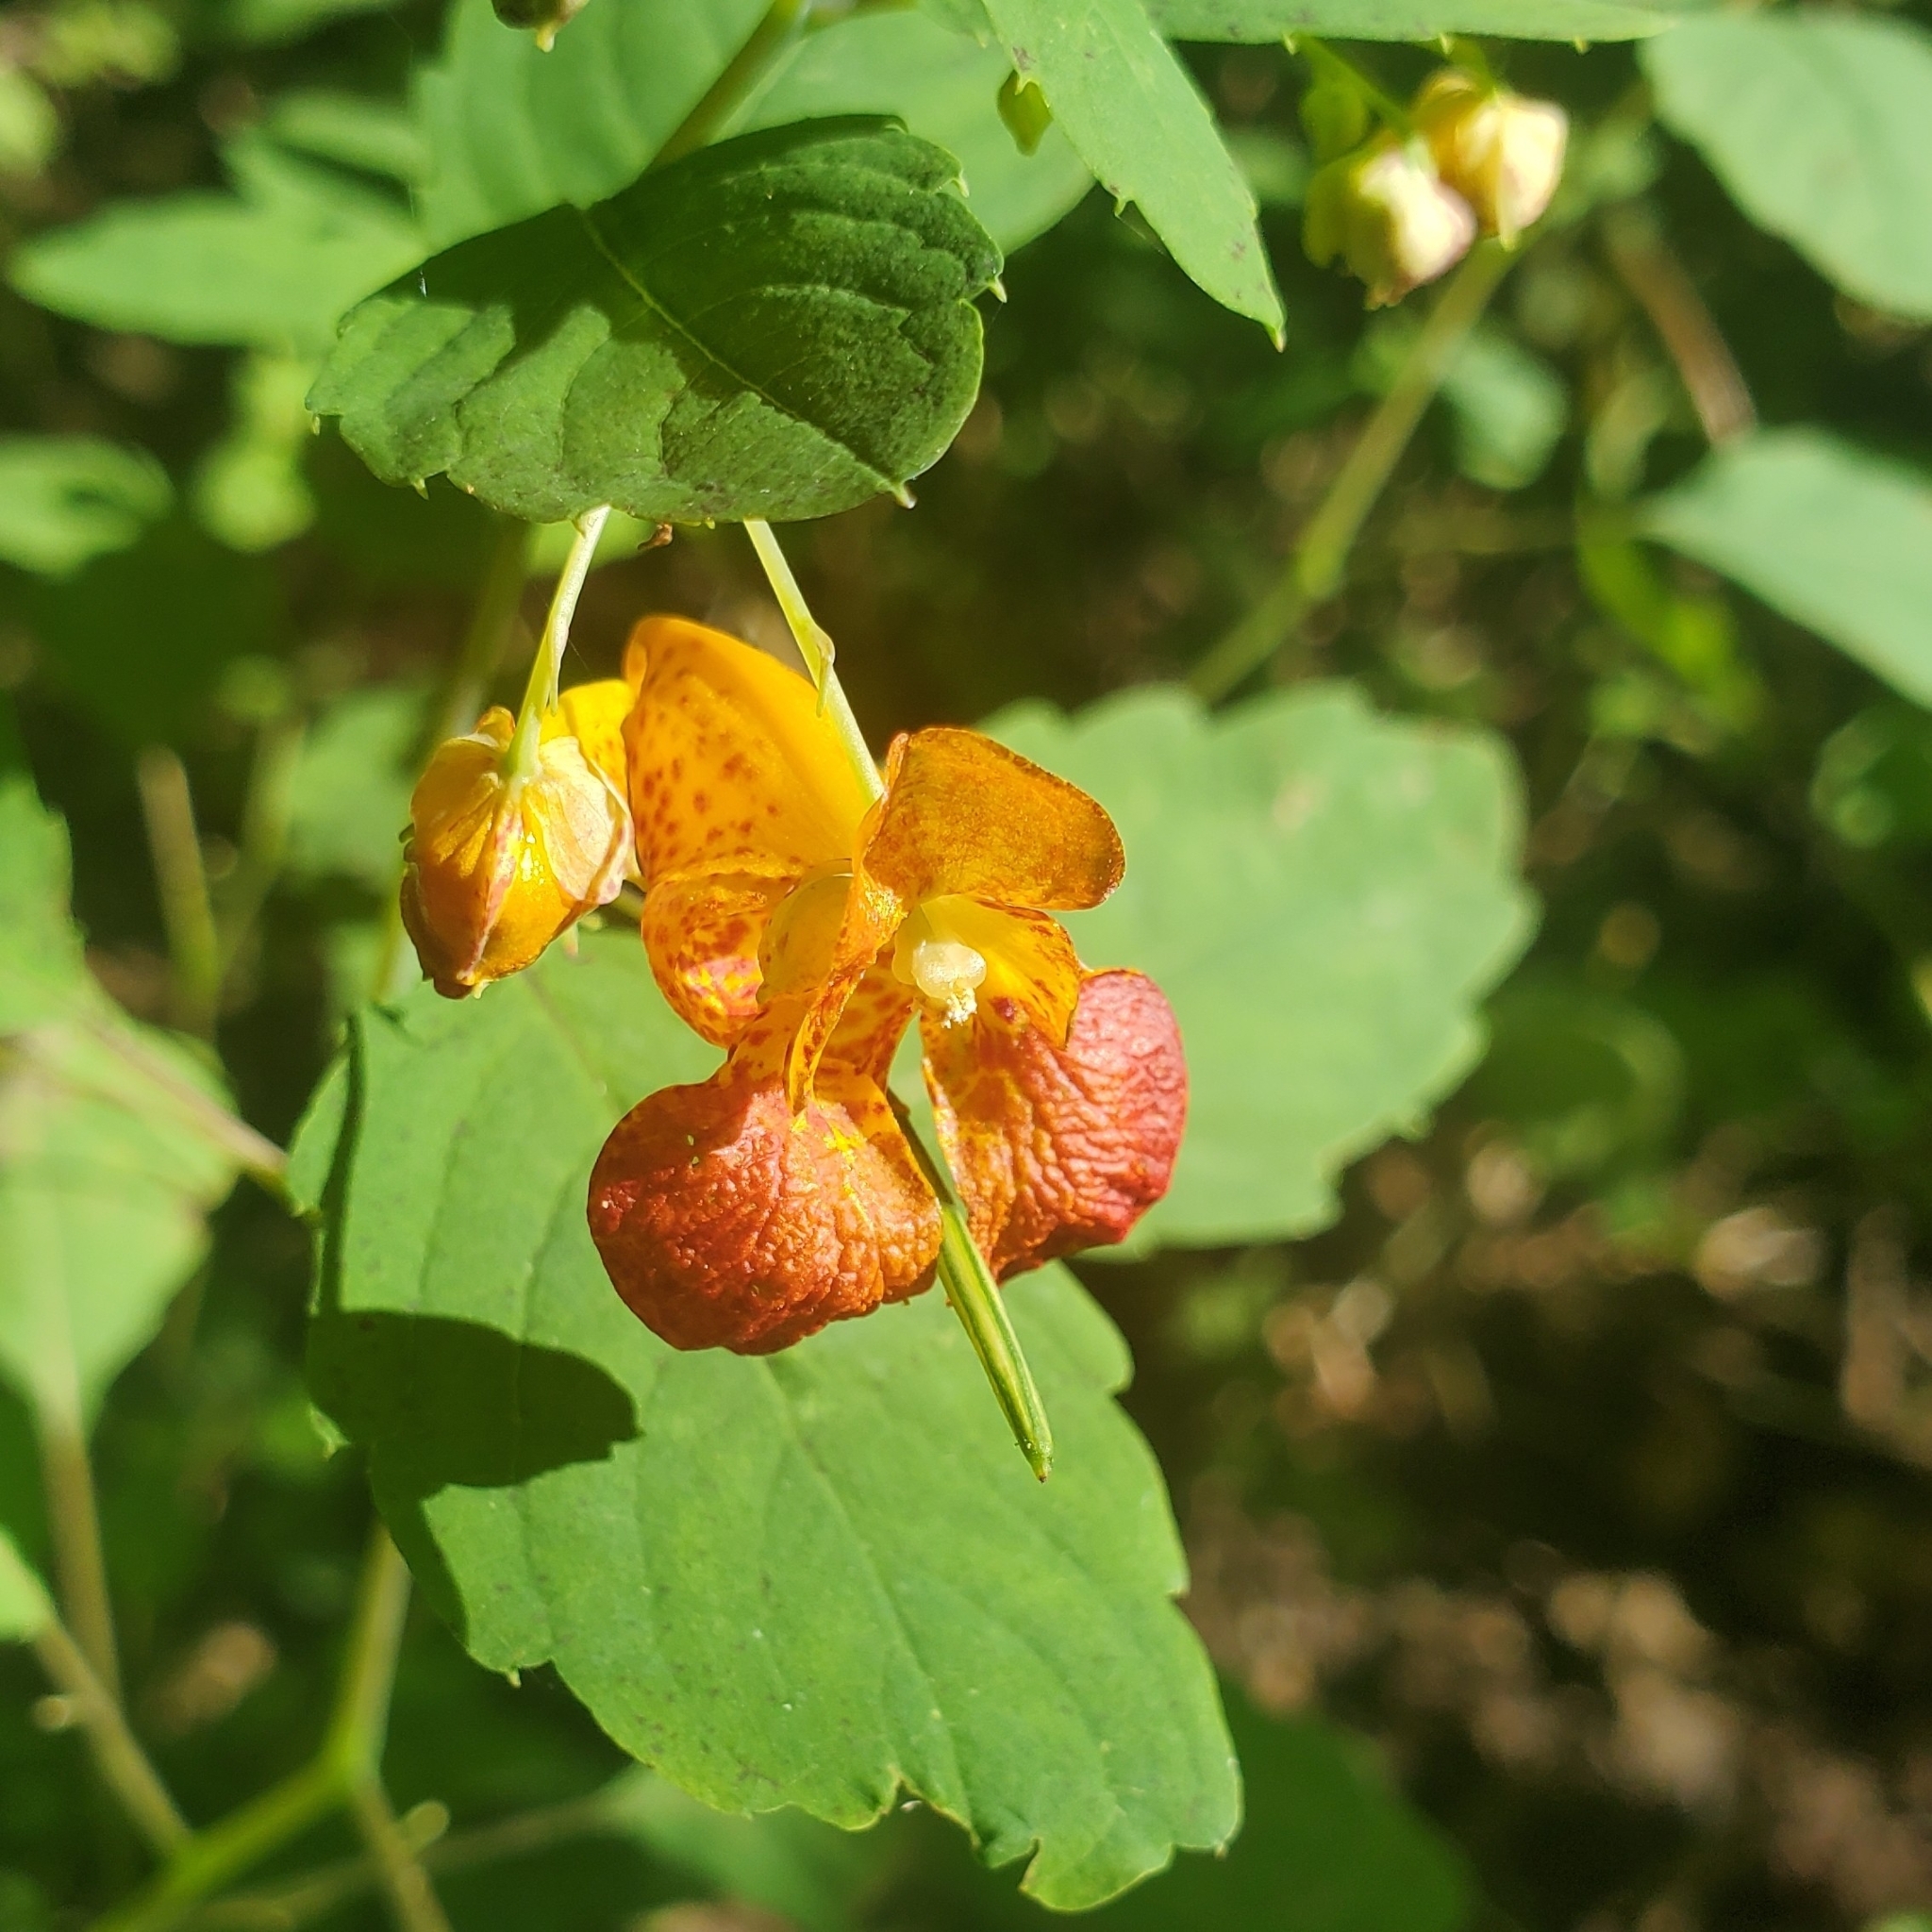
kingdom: Plantae
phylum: Tracheophyta
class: Magnoliopsida
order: Ericales
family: Balsaminaceae
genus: Impatiens
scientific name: Impatiens capensis
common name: Orange balsam
